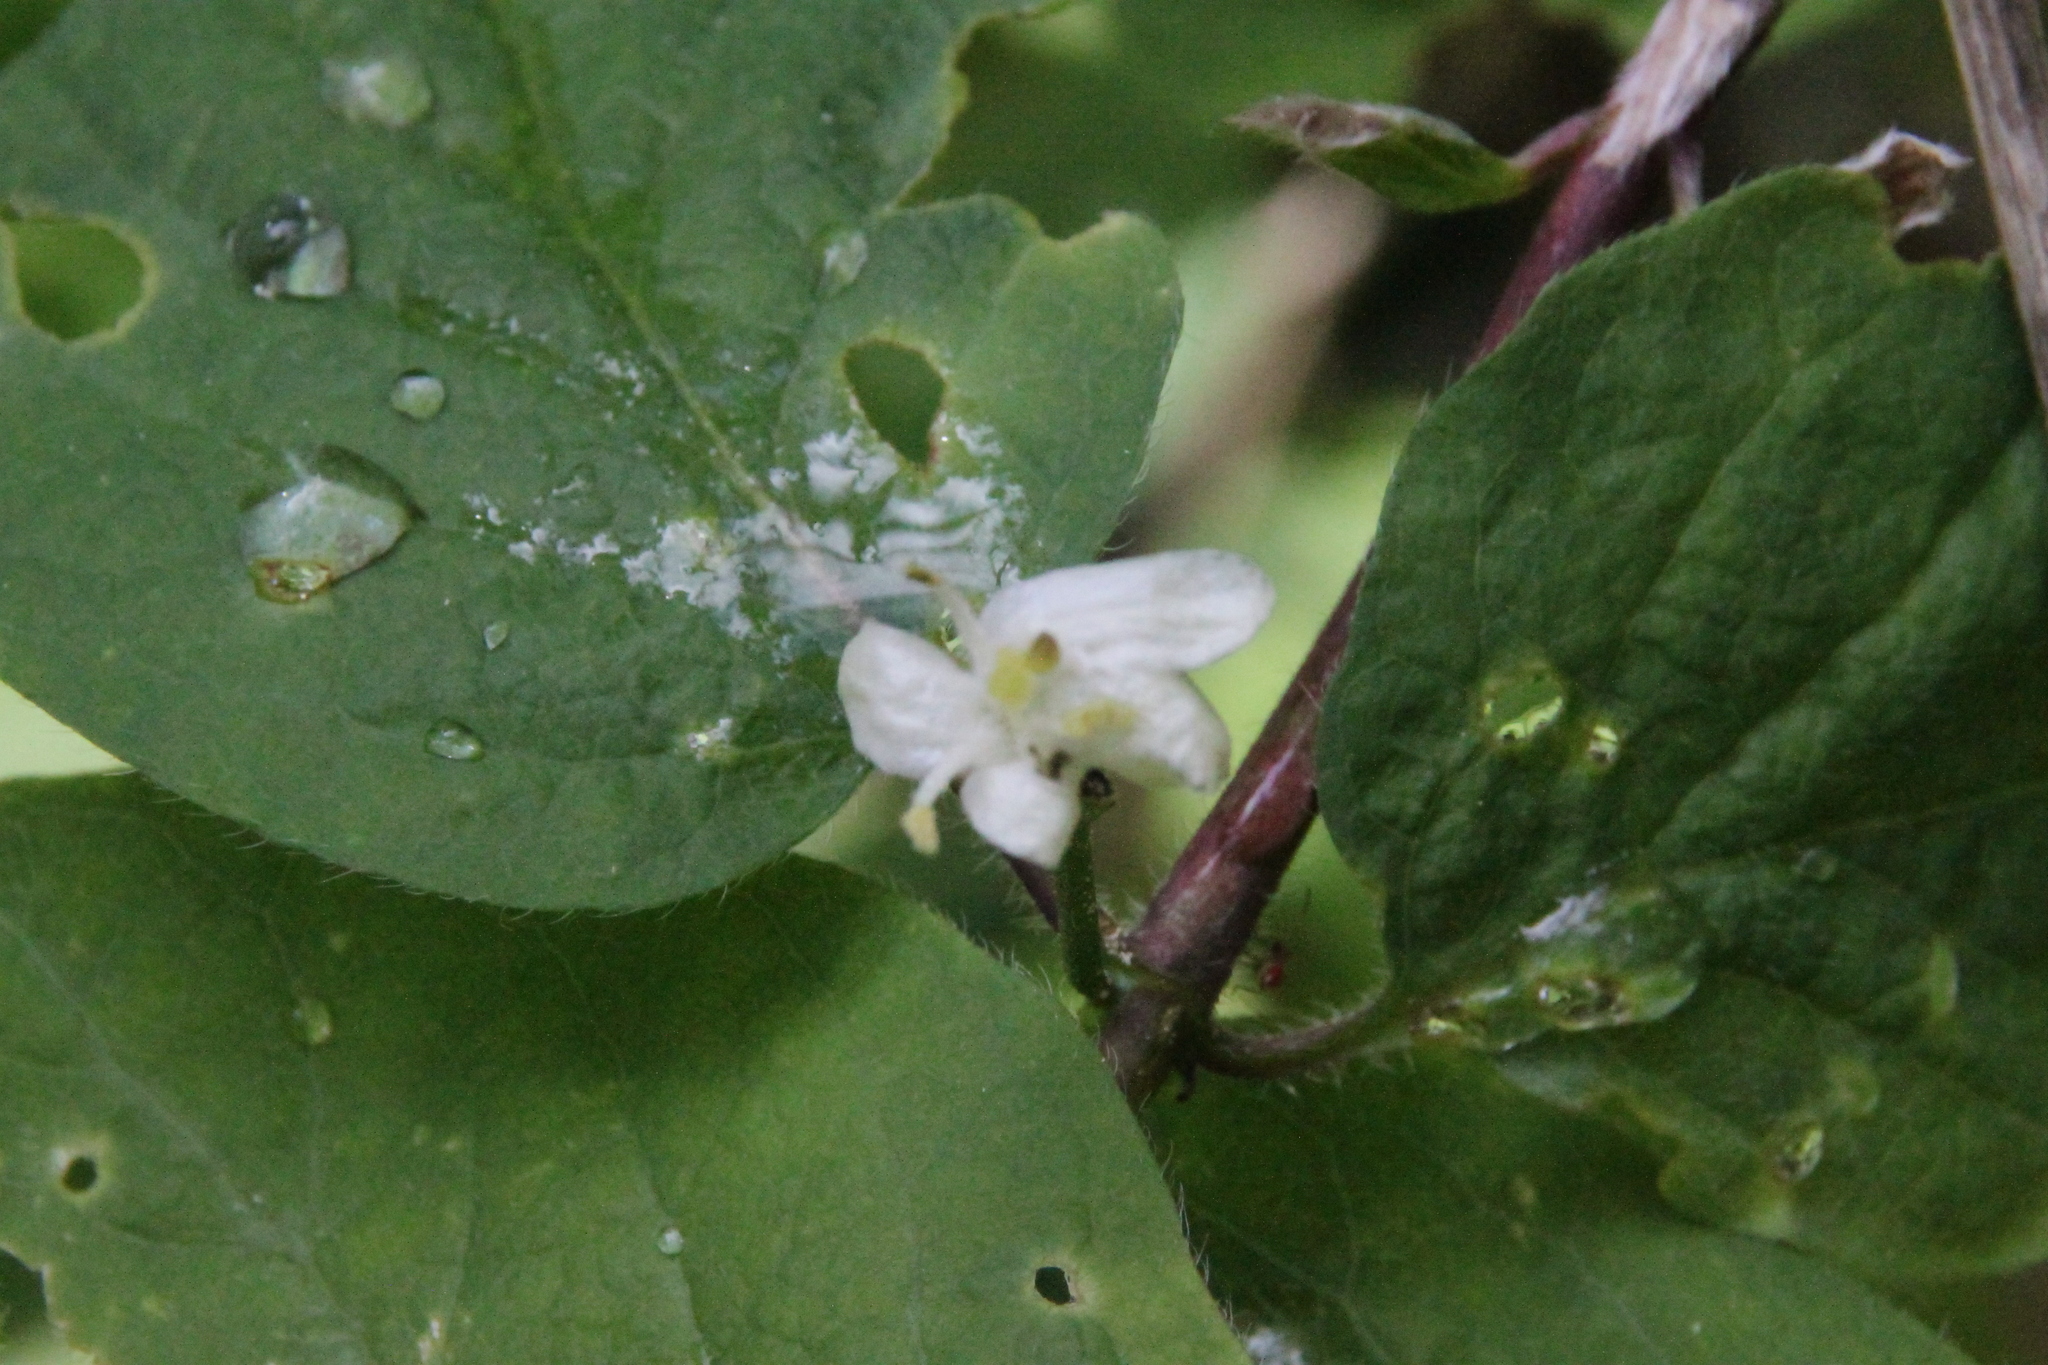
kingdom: Plantae
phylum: Tracheophyta
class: Magnoliopsida
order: Dipsacales
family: Caprifoliaceae
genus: Lonicera
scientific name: Lonicera xylosteum
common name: Fly honeysuckle
